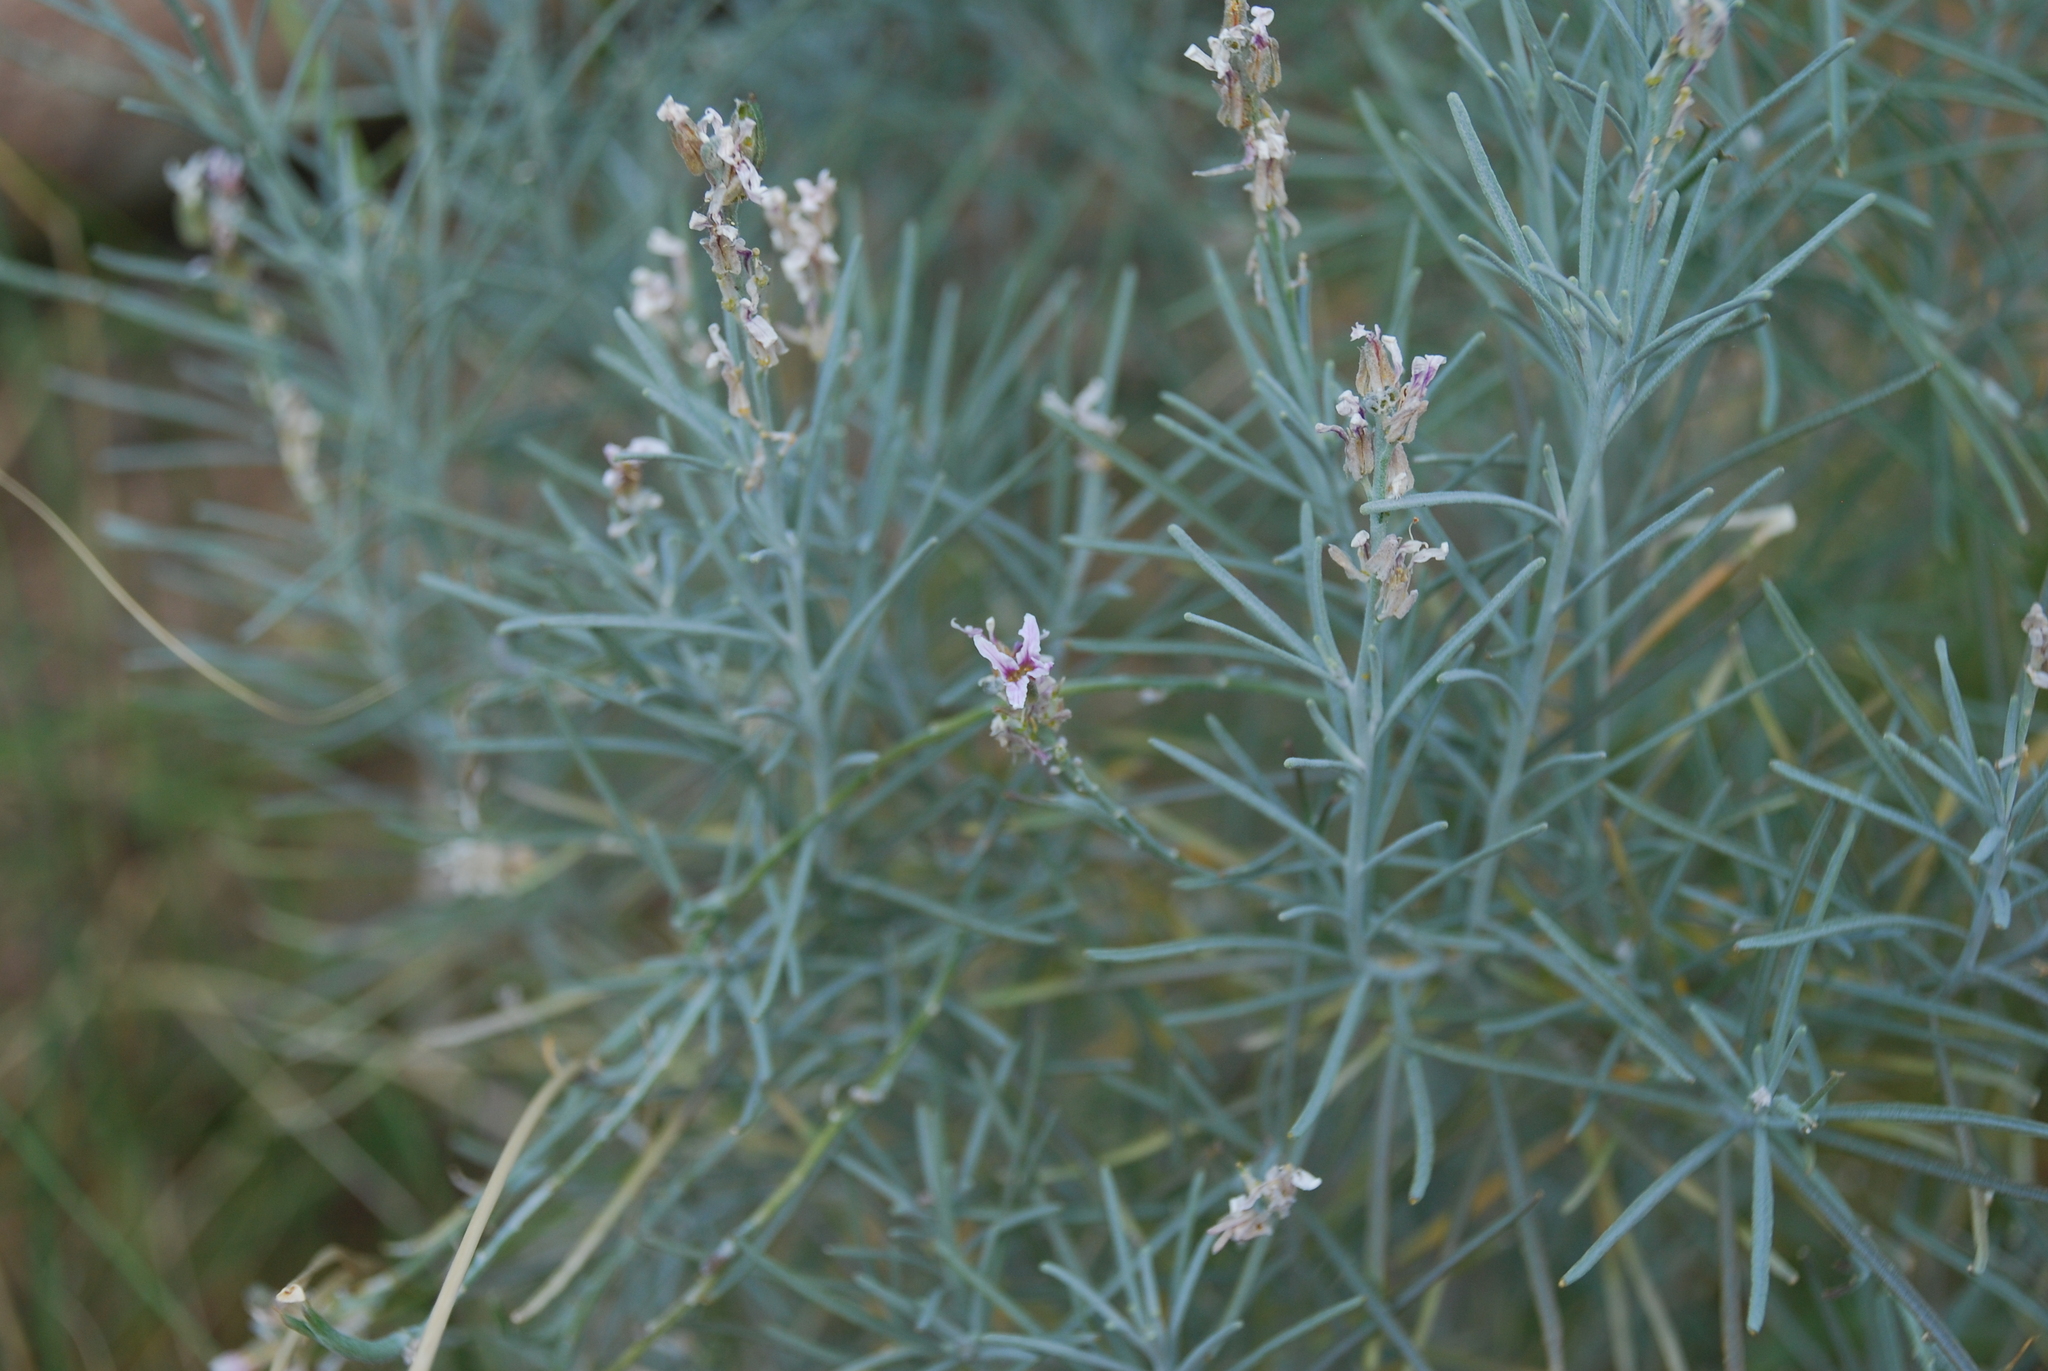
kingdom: Plantae
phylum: Tracheophyta
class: Magnoliopsida
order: Brassicales
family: Brassicaceae
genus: Erysimum
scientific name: Erysimum scoparium
